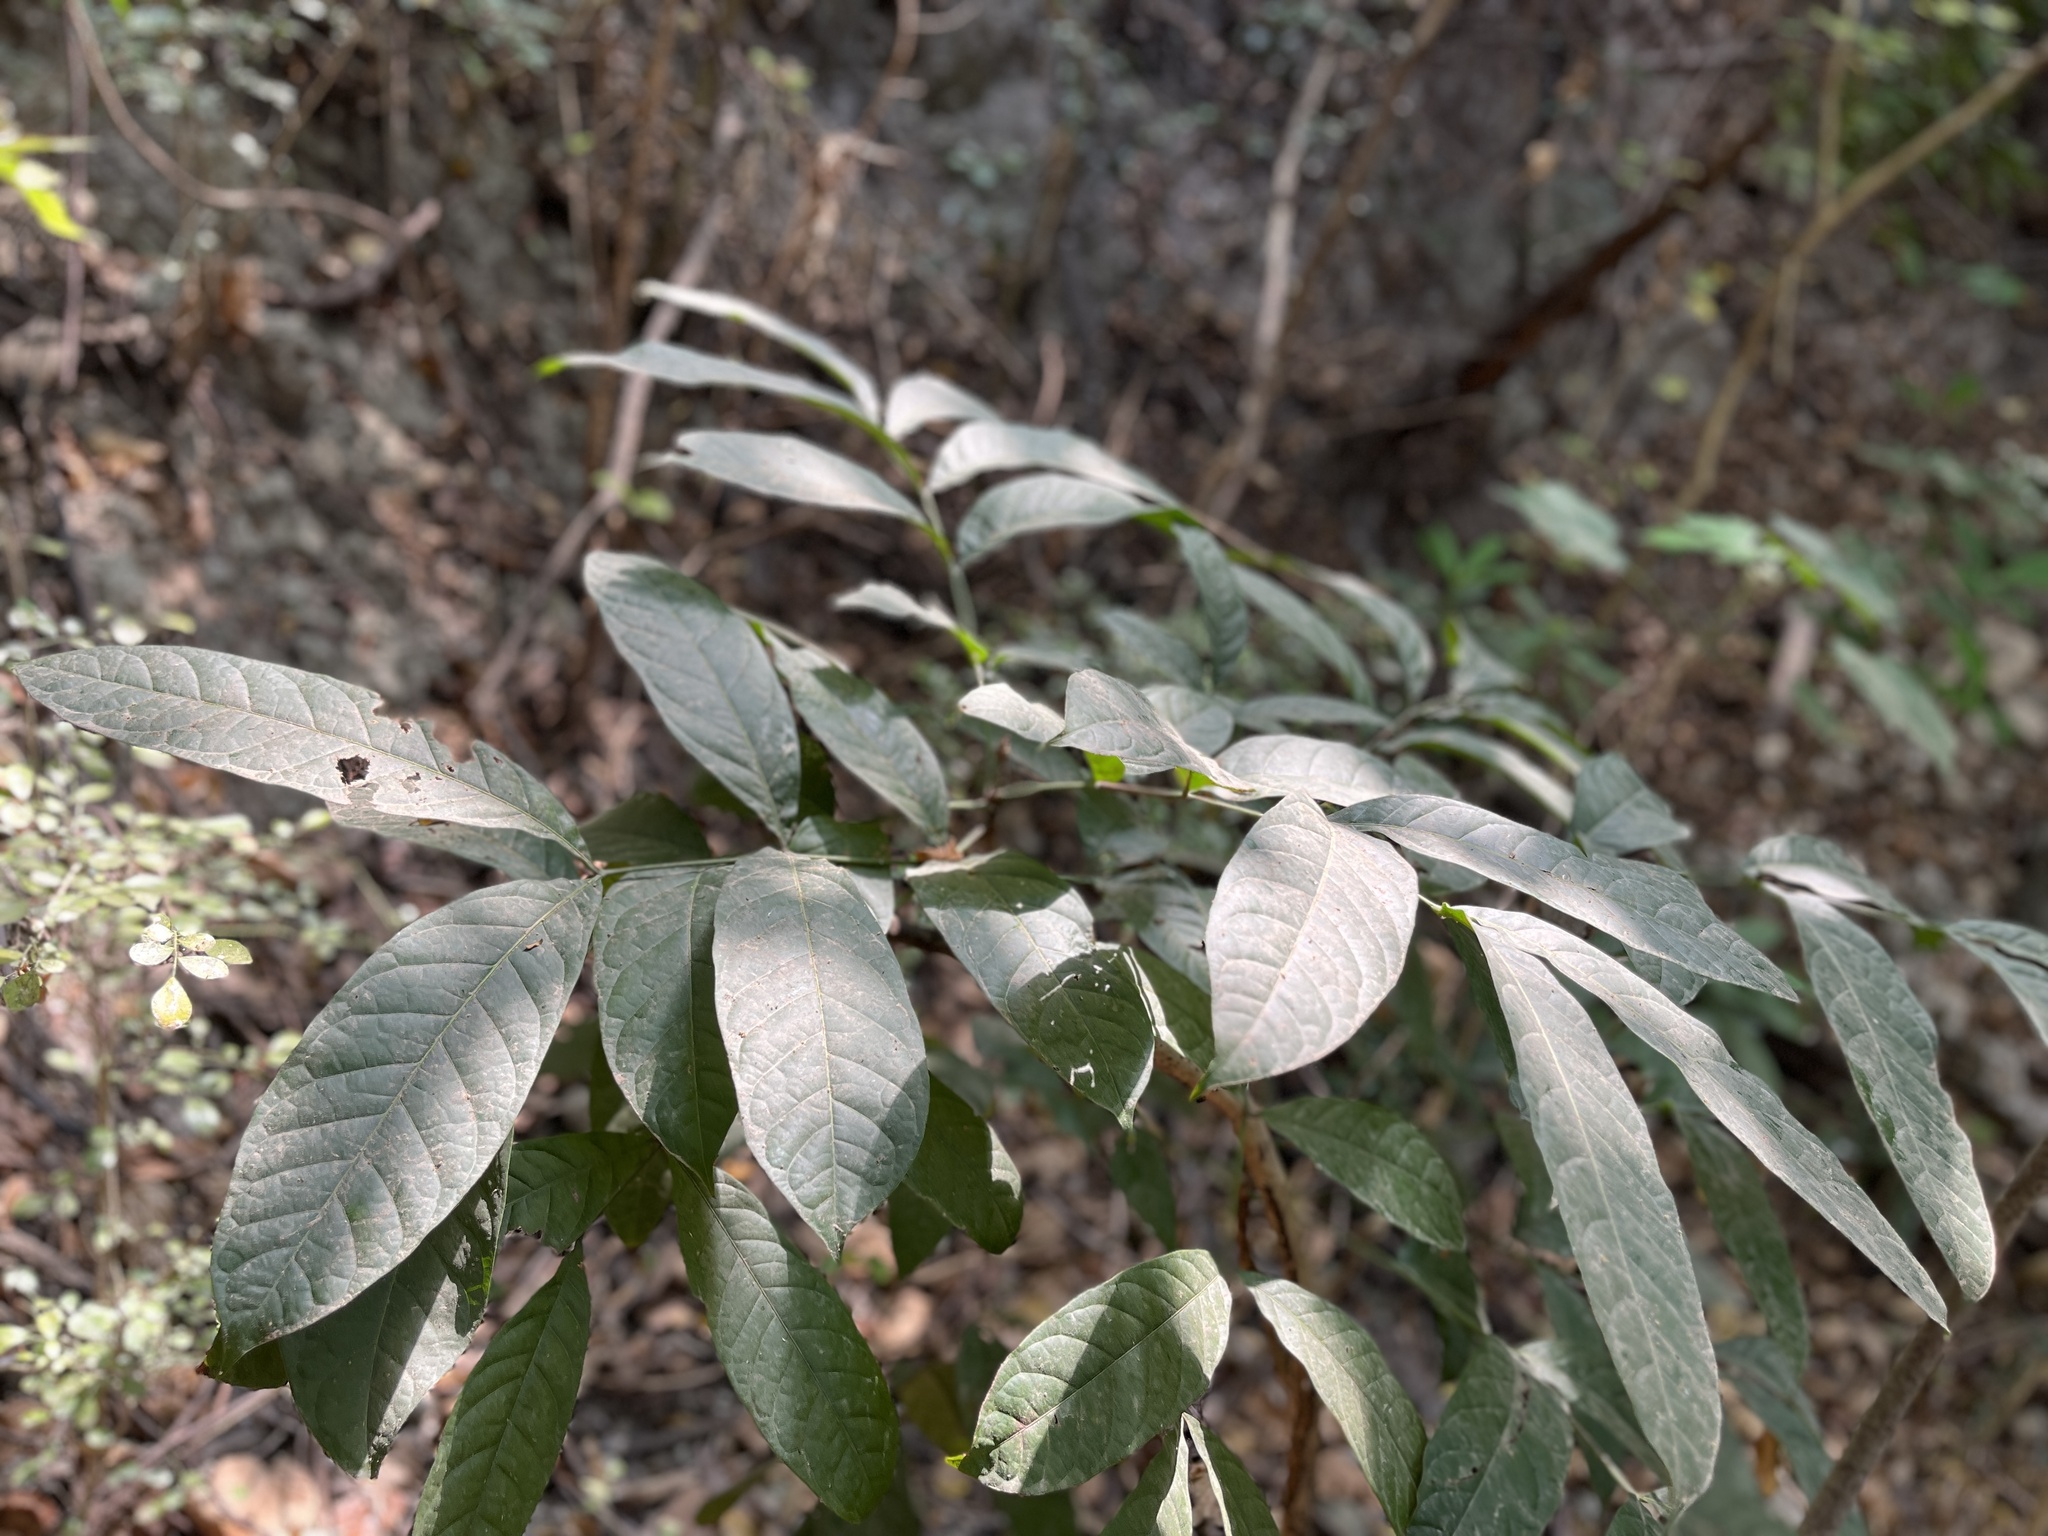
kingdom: Plantae
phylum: Tracheophyta
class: Magnoliopsida
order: Sapindales
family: Meliaceae
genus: Swietenia
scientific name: Swietenia macrophylla
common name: Honduras mahogany
